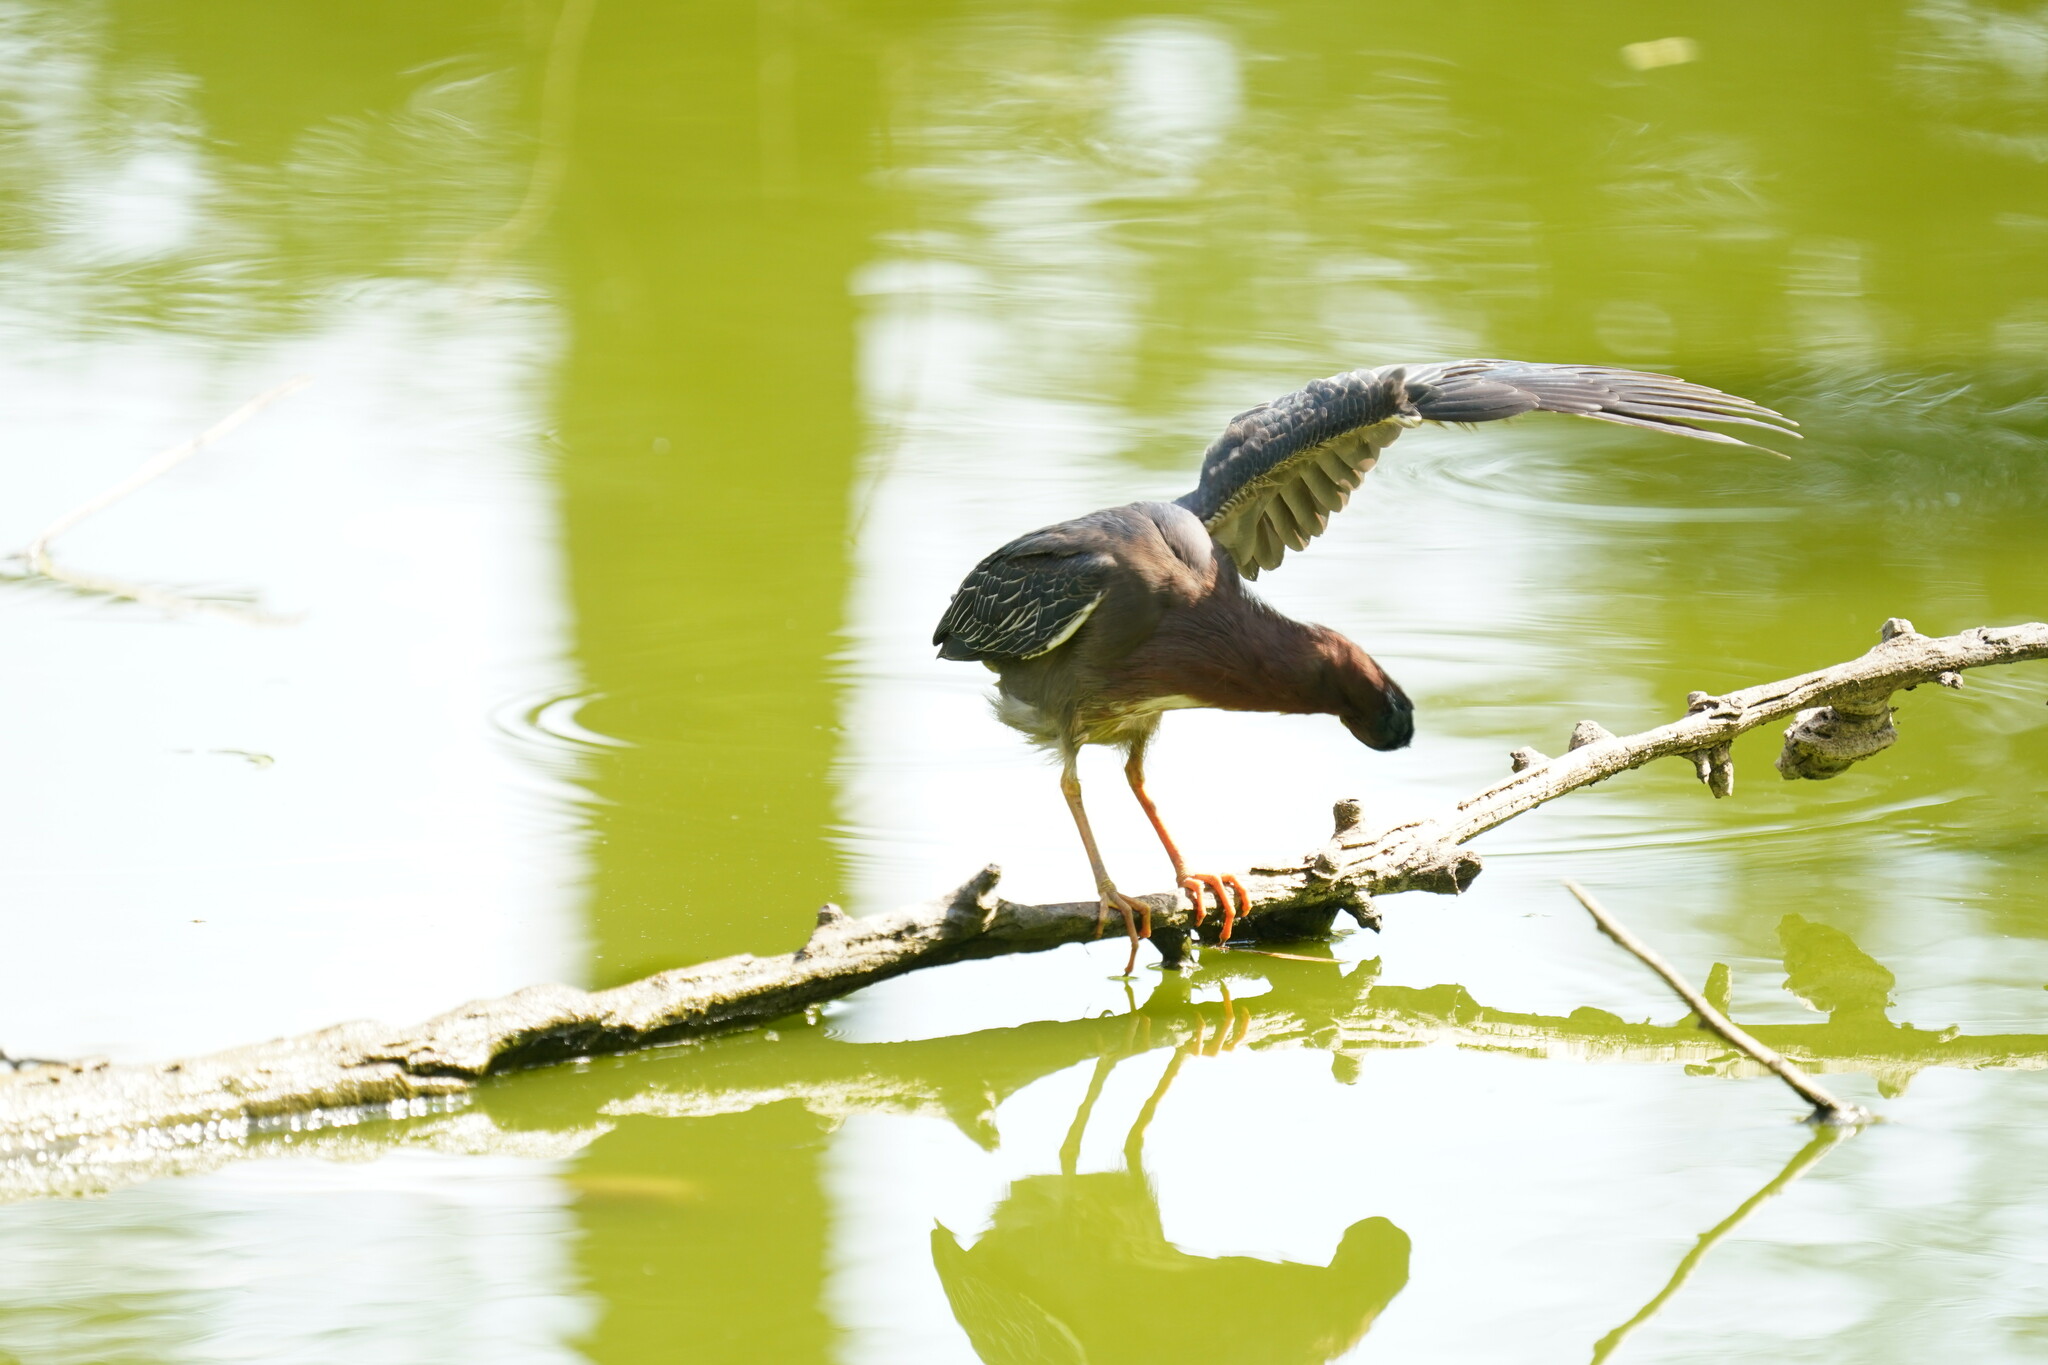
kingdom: Animalia
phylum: Chordata
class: Aves
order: Pelecaniformes
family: Ardeidae
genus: Butorides
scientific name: Butorides virescens
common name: Green heron
